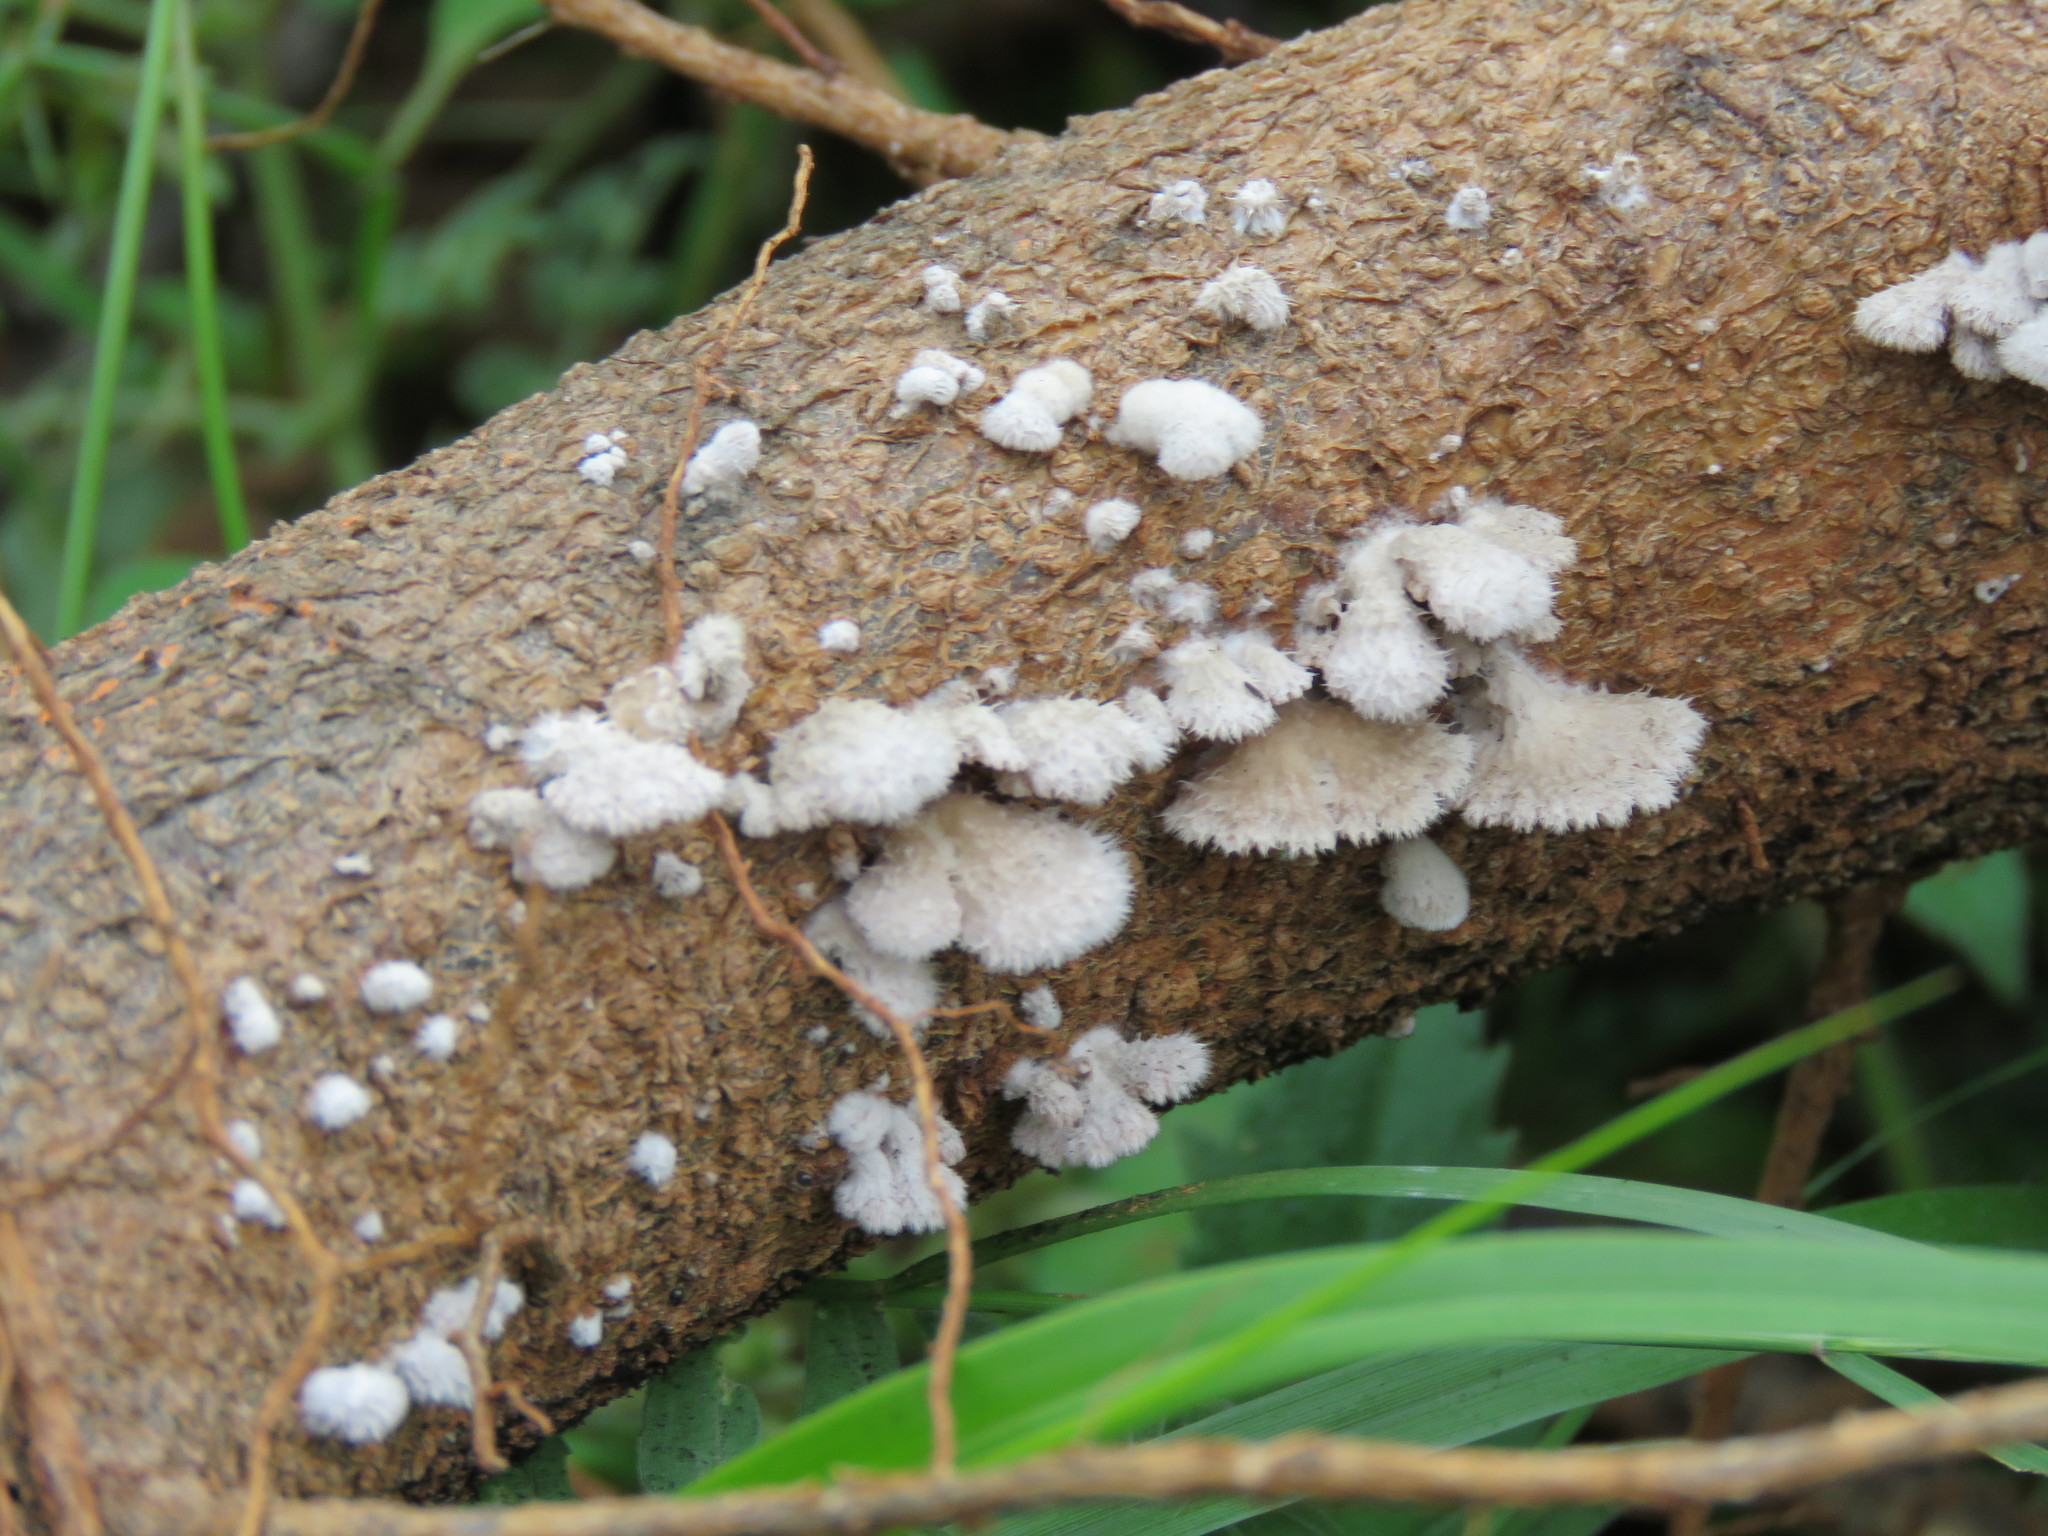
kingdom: Fungi
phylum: Basidiomycota
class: Agaricomycetes
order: Agaricales
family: Schizophyllaceae
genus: Schizophyllum
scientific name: Schizophyllum commune
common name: Common porecrust
